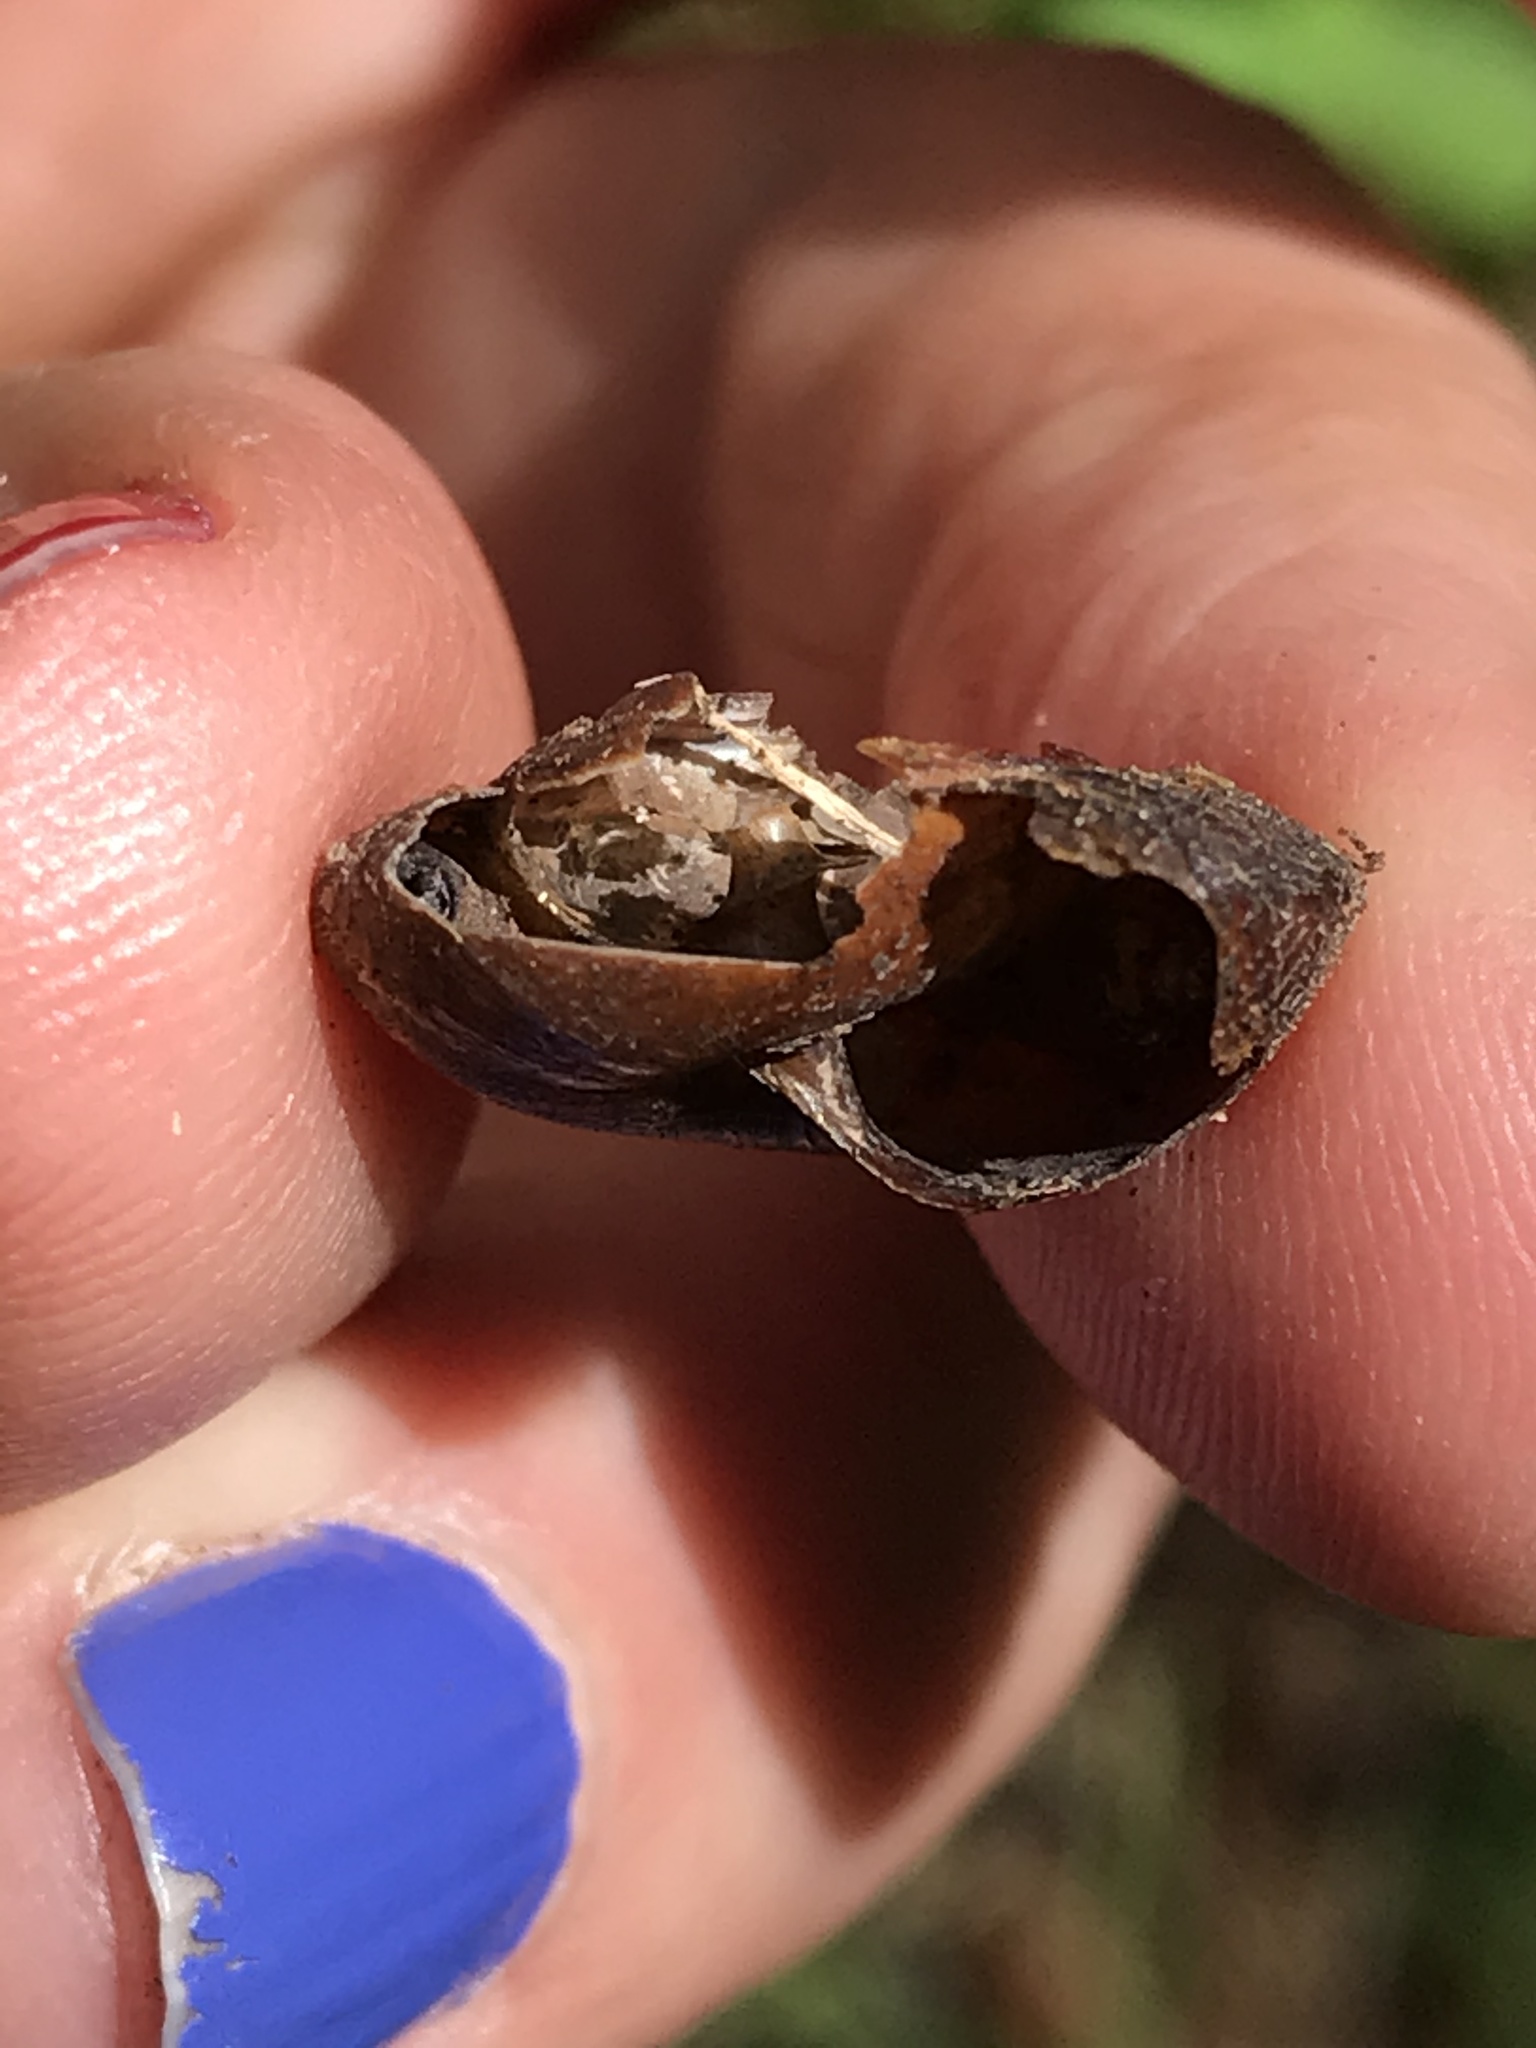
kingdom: Animalia
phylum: Mollusca
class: Gastropoda
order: Stylommatophora
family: Xanthonychidae
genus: Monadenia
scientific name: Monadenia infumata
